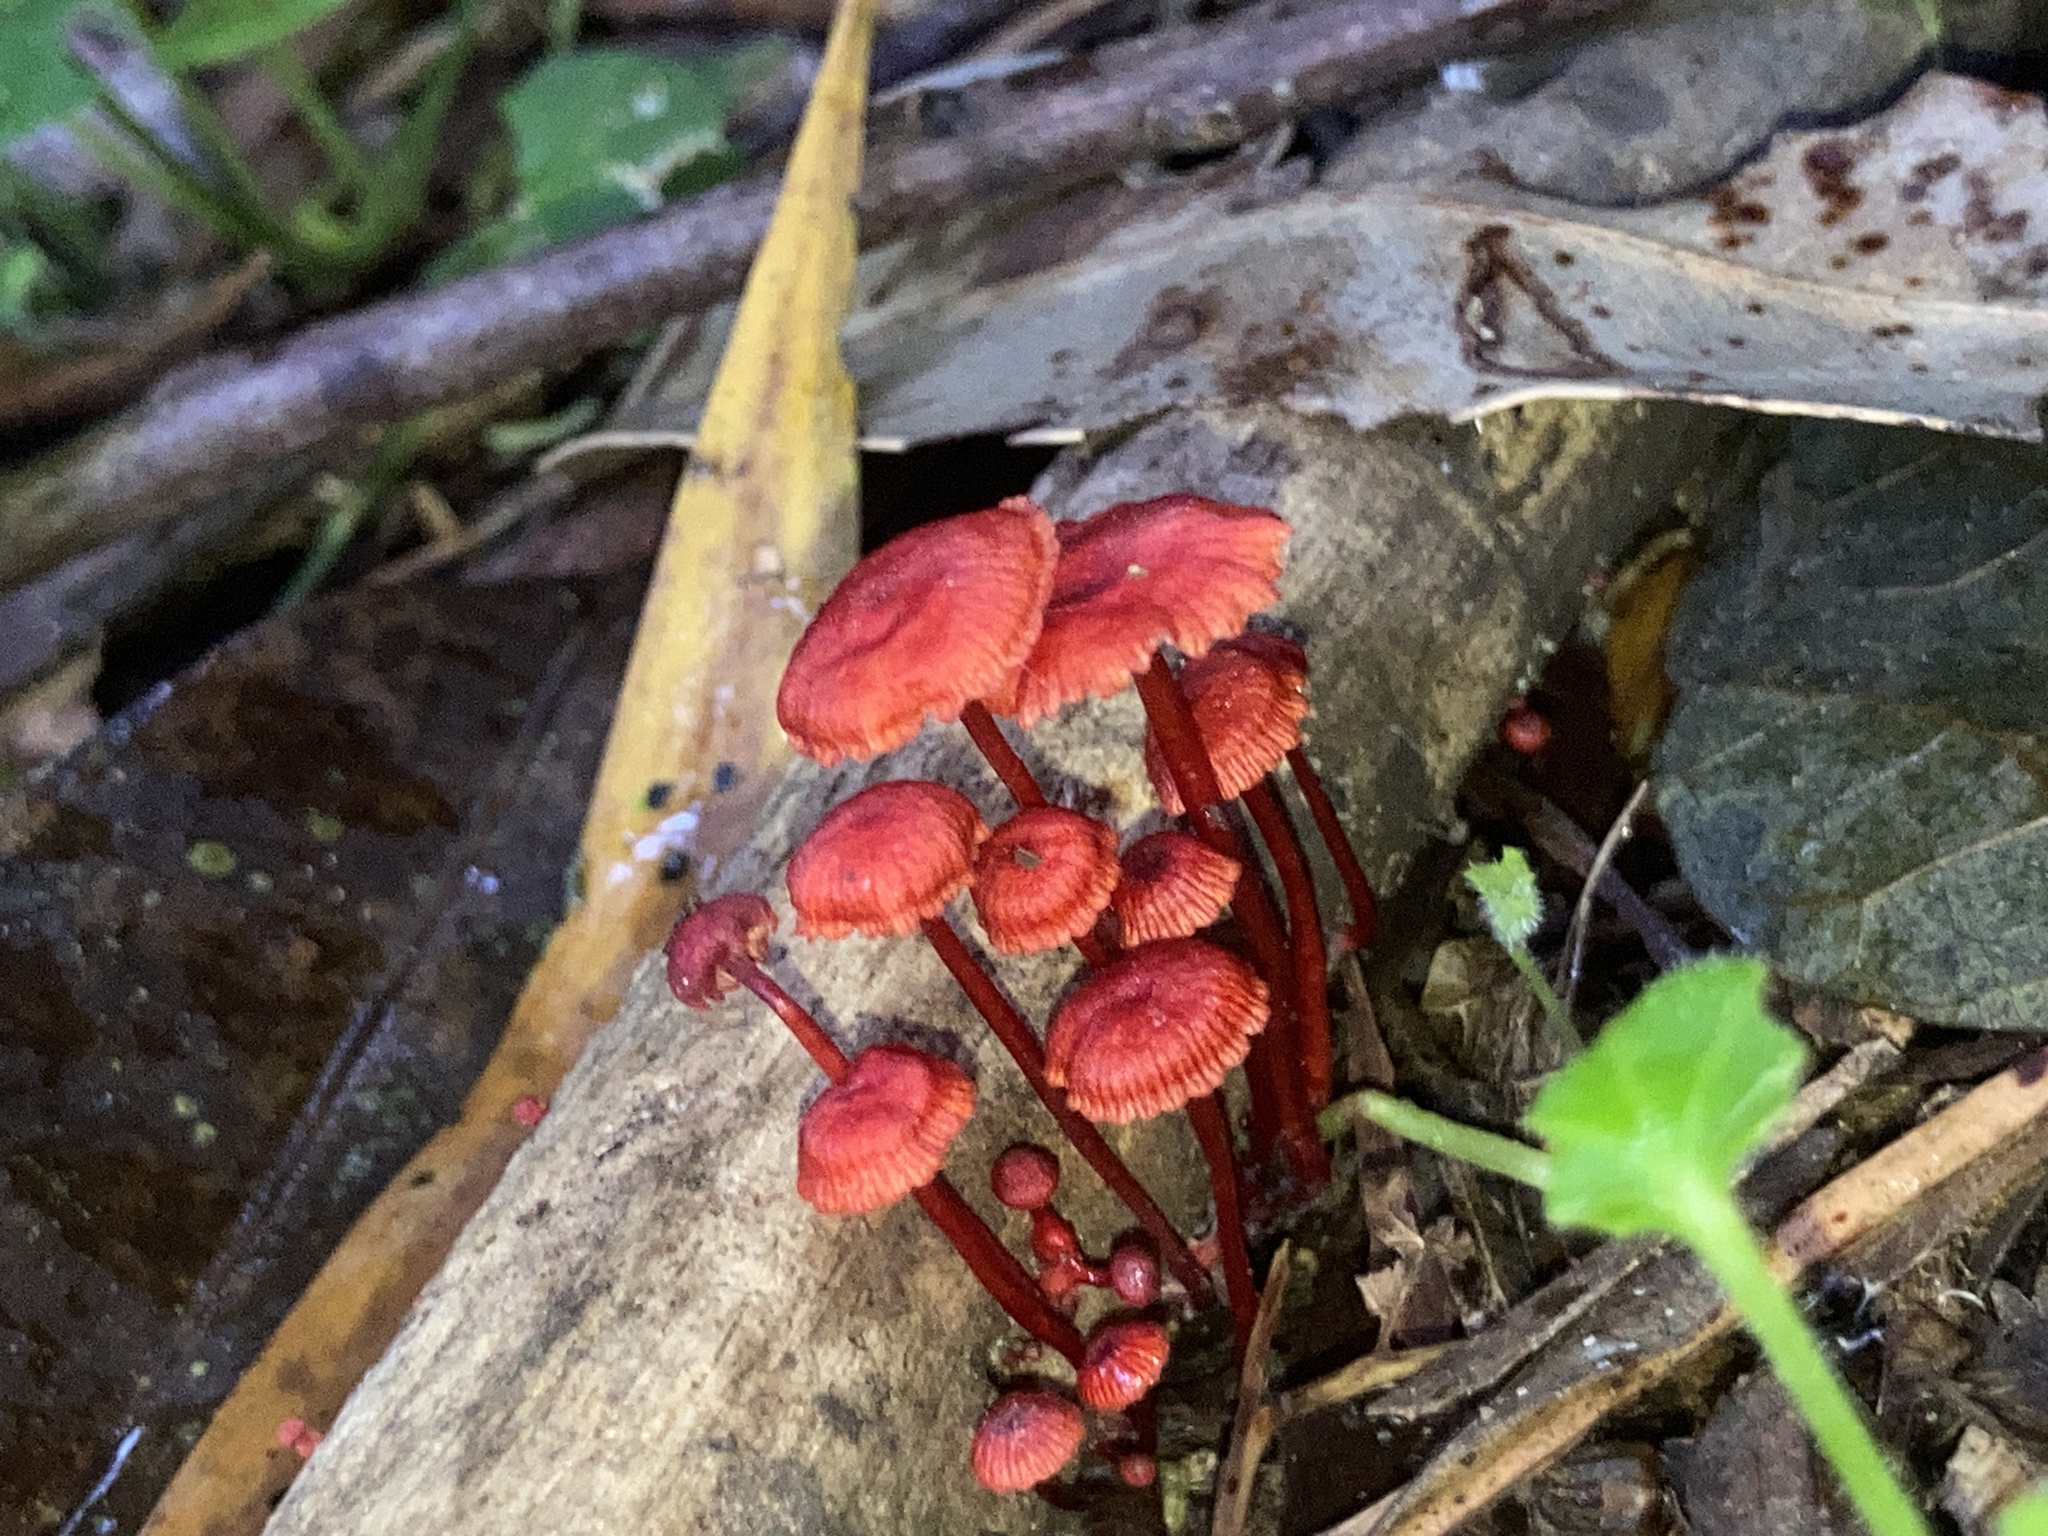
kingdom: Fungi
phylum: Basidiomycota
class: Agaricomycetes
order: Agaricales
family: Mycenaceae
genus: Cruentomycena
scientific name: Cruentomycena viscidocruenta
